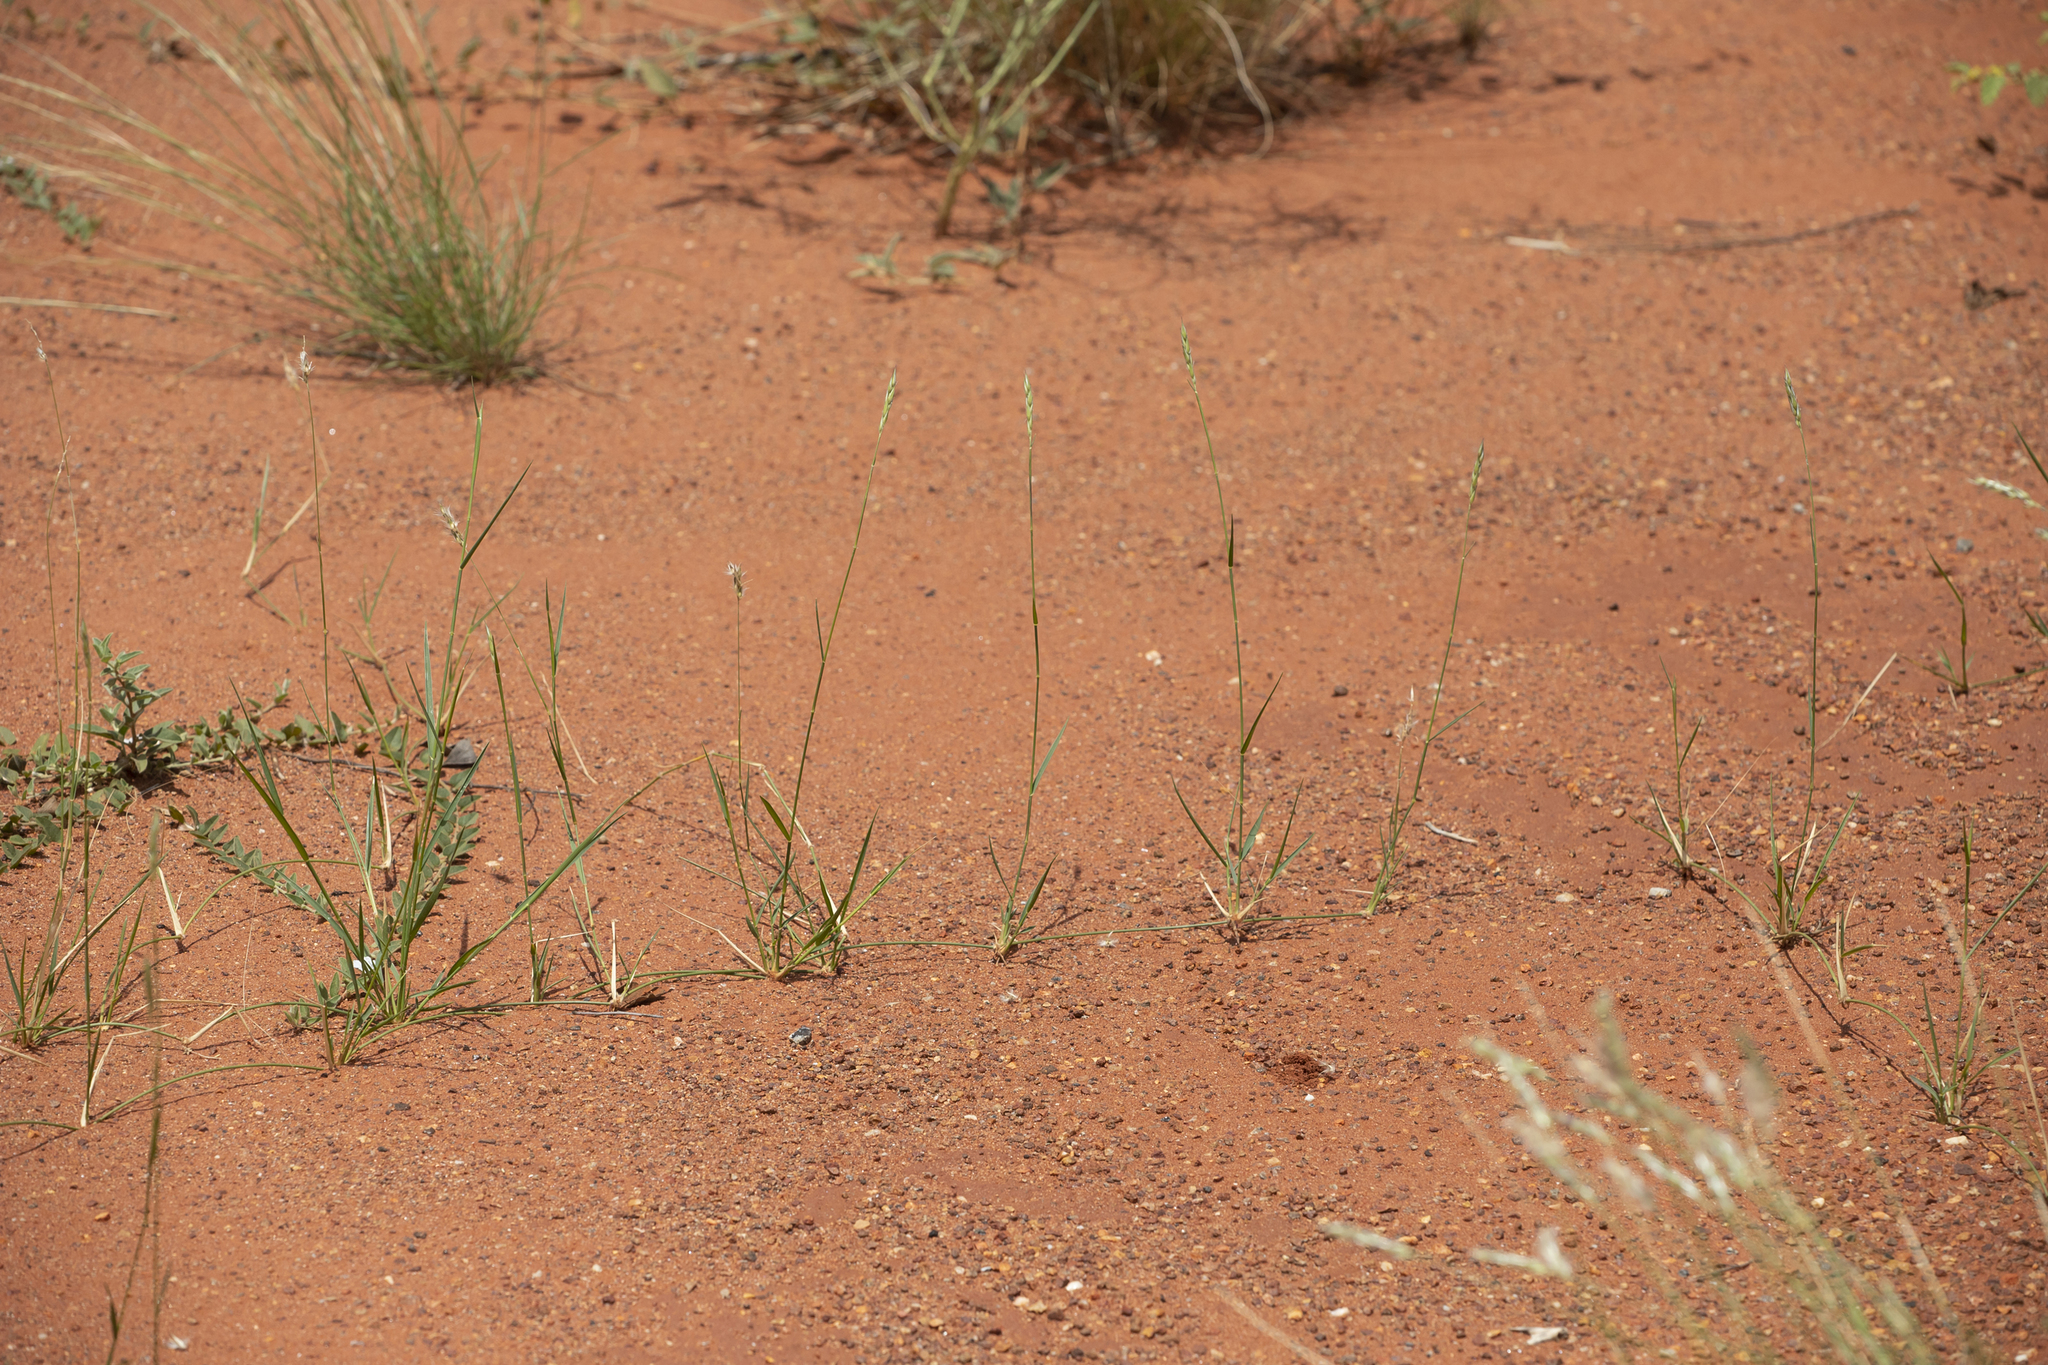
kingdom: Plantae
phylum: Tracheophyta
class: Liliopsida
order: Poales
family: Poaceae
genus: Neurachne
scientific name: Neurachne muelleri
